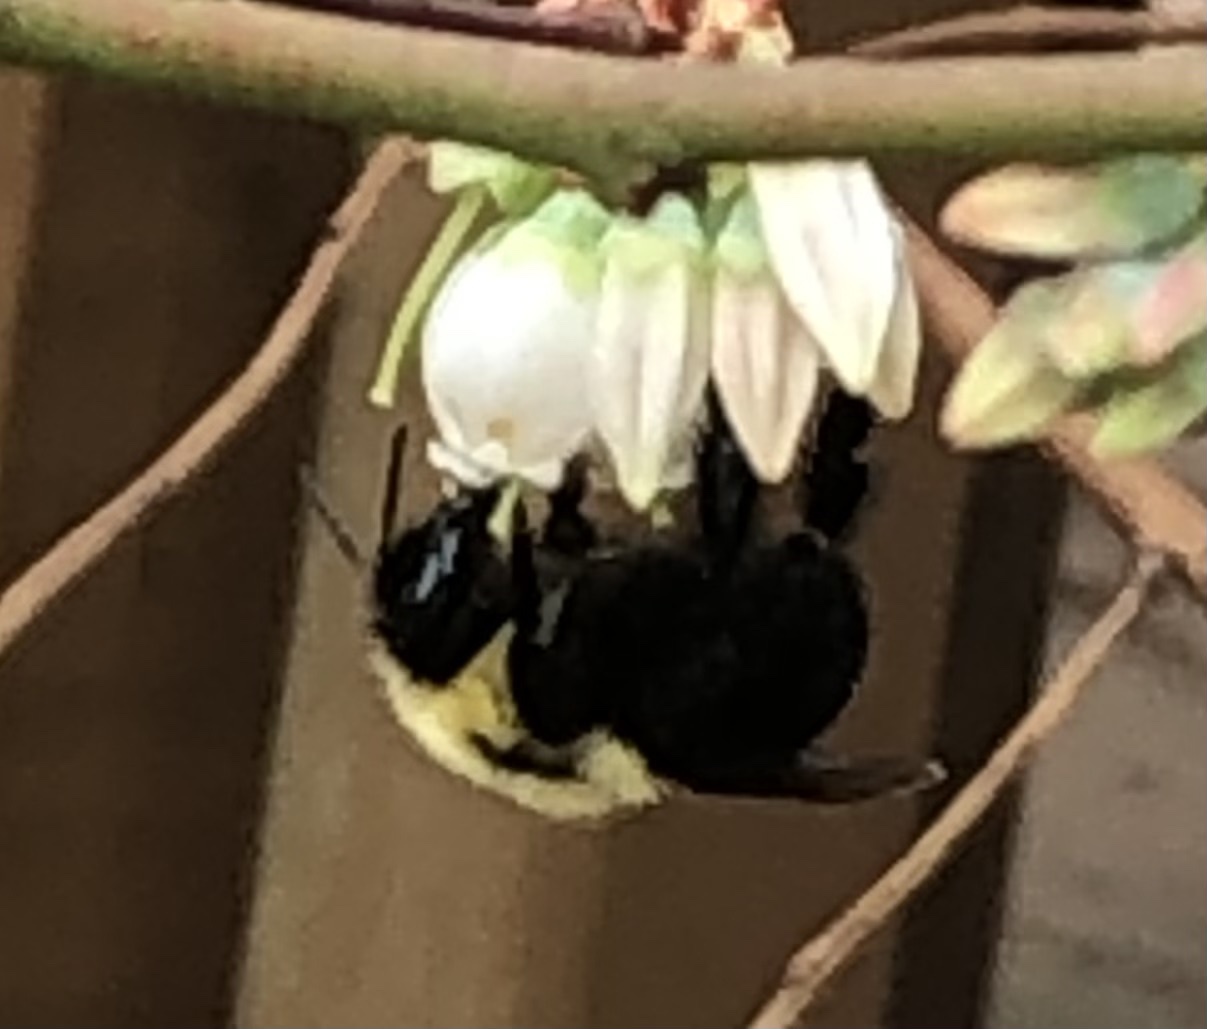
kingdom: Animalia
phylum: Arthropoda
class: Insecta
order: Hymenoptera
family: Apidae
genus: Bombus
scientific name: Bombus bimaculatus
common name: Two-spotted bumble bee
